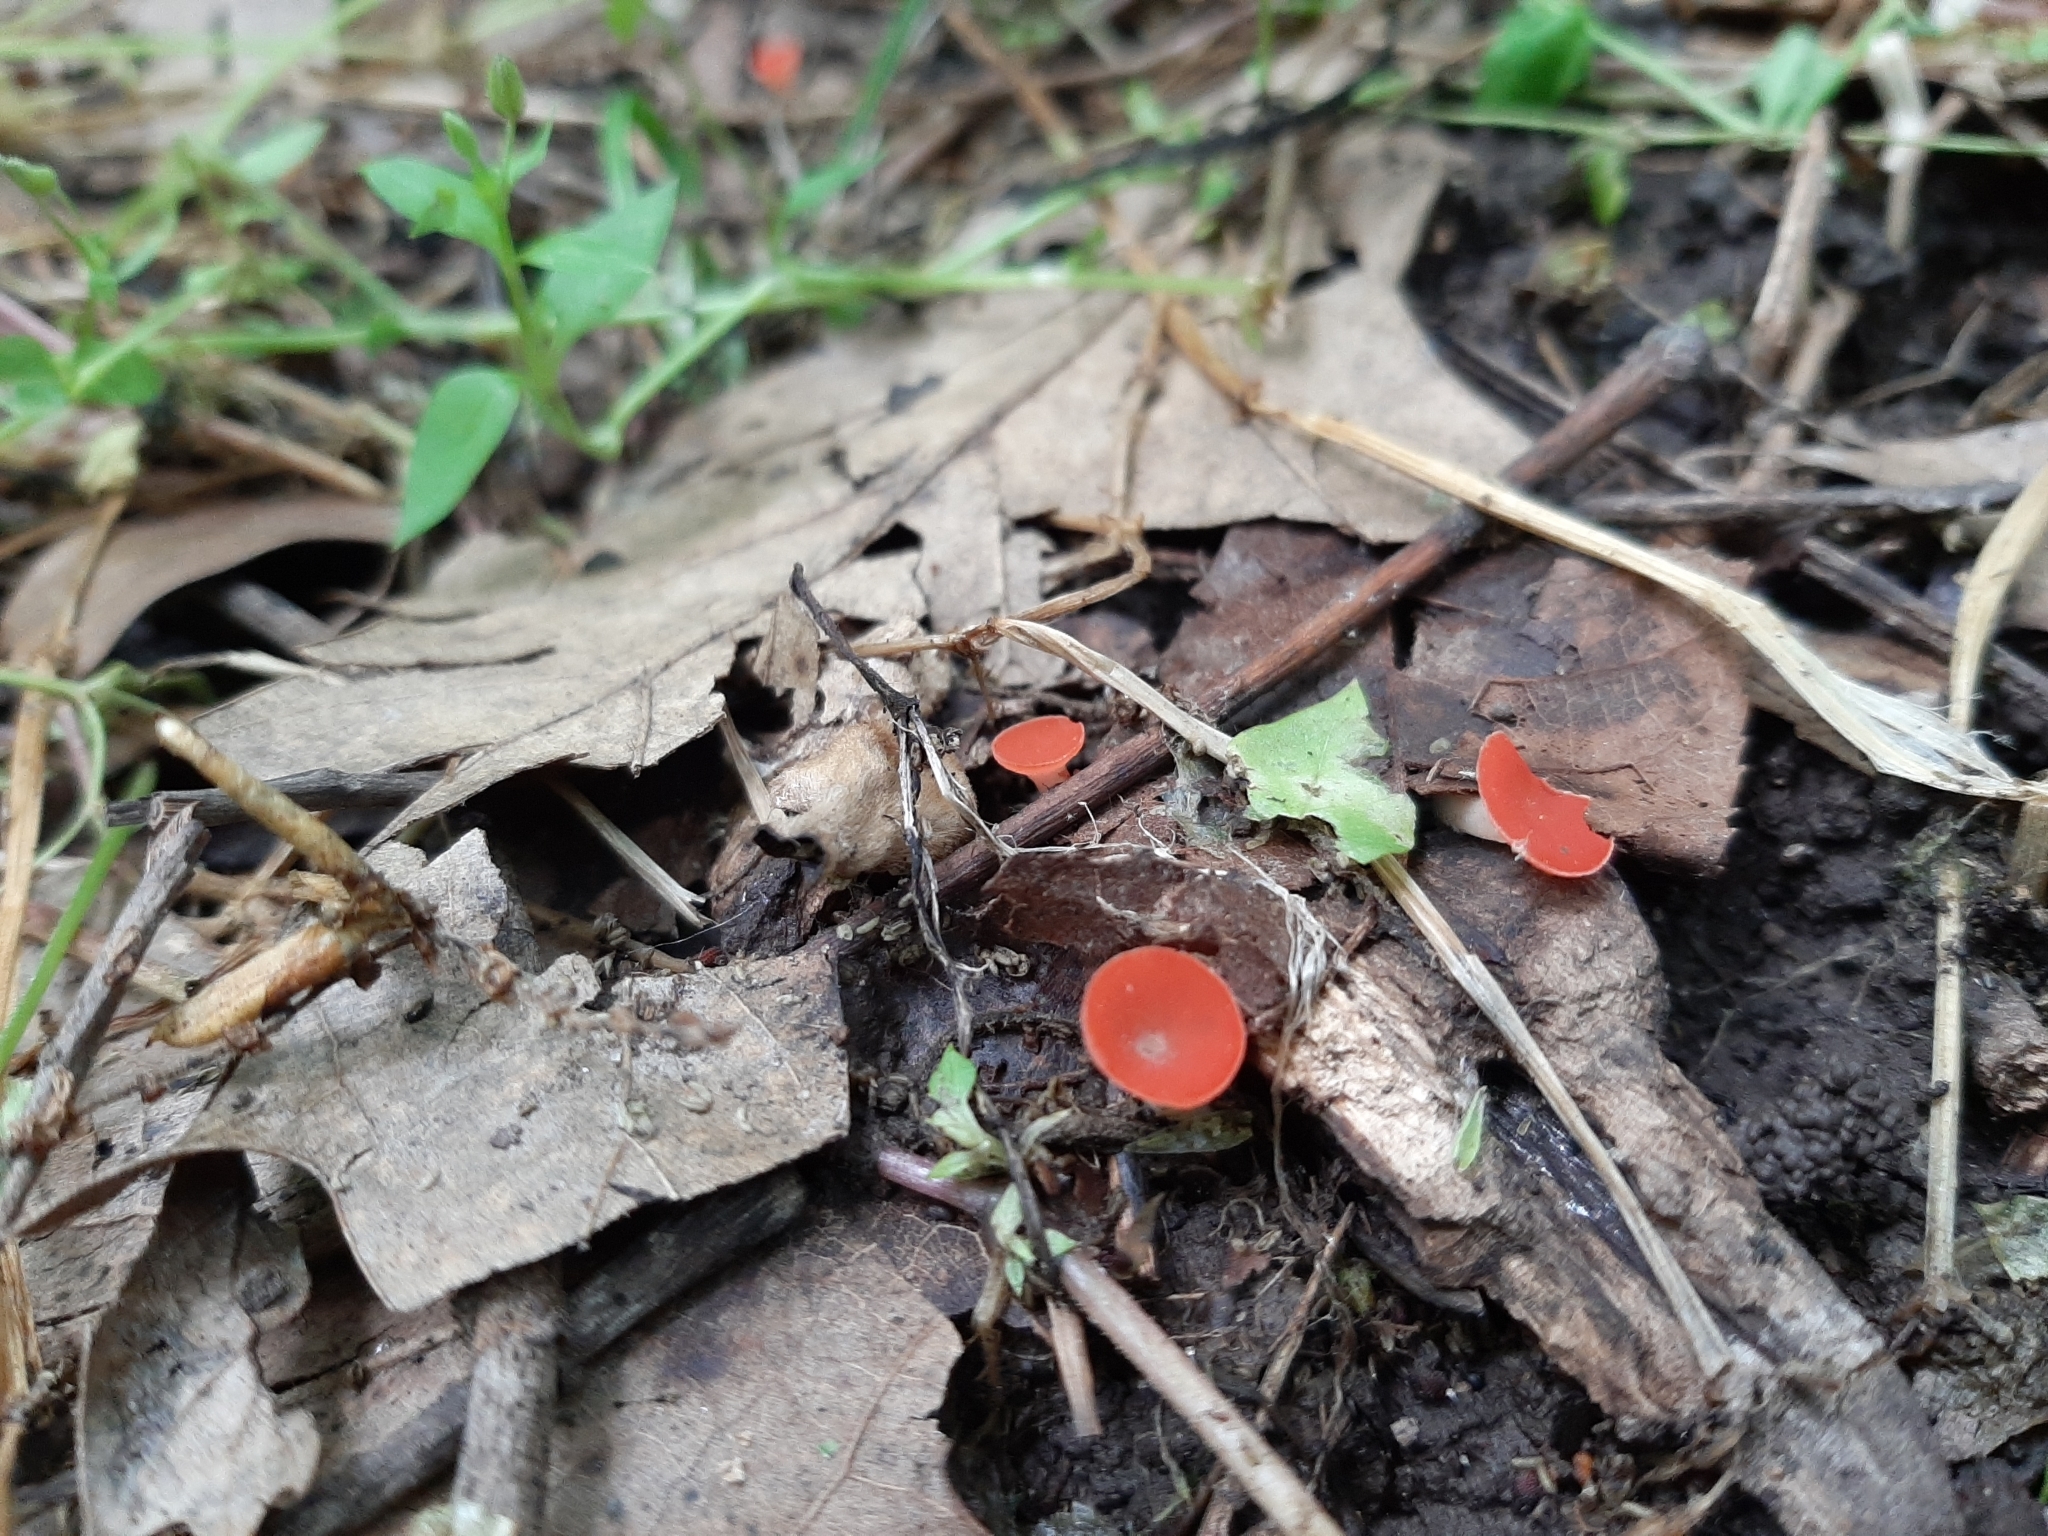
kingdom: Fungi
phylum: Ascomycota
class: Pezizomycetes
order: Pezizales
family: Sarcoscyphaceae
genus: Sarcoscypha
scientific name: Sarcoscypha occidentalis
